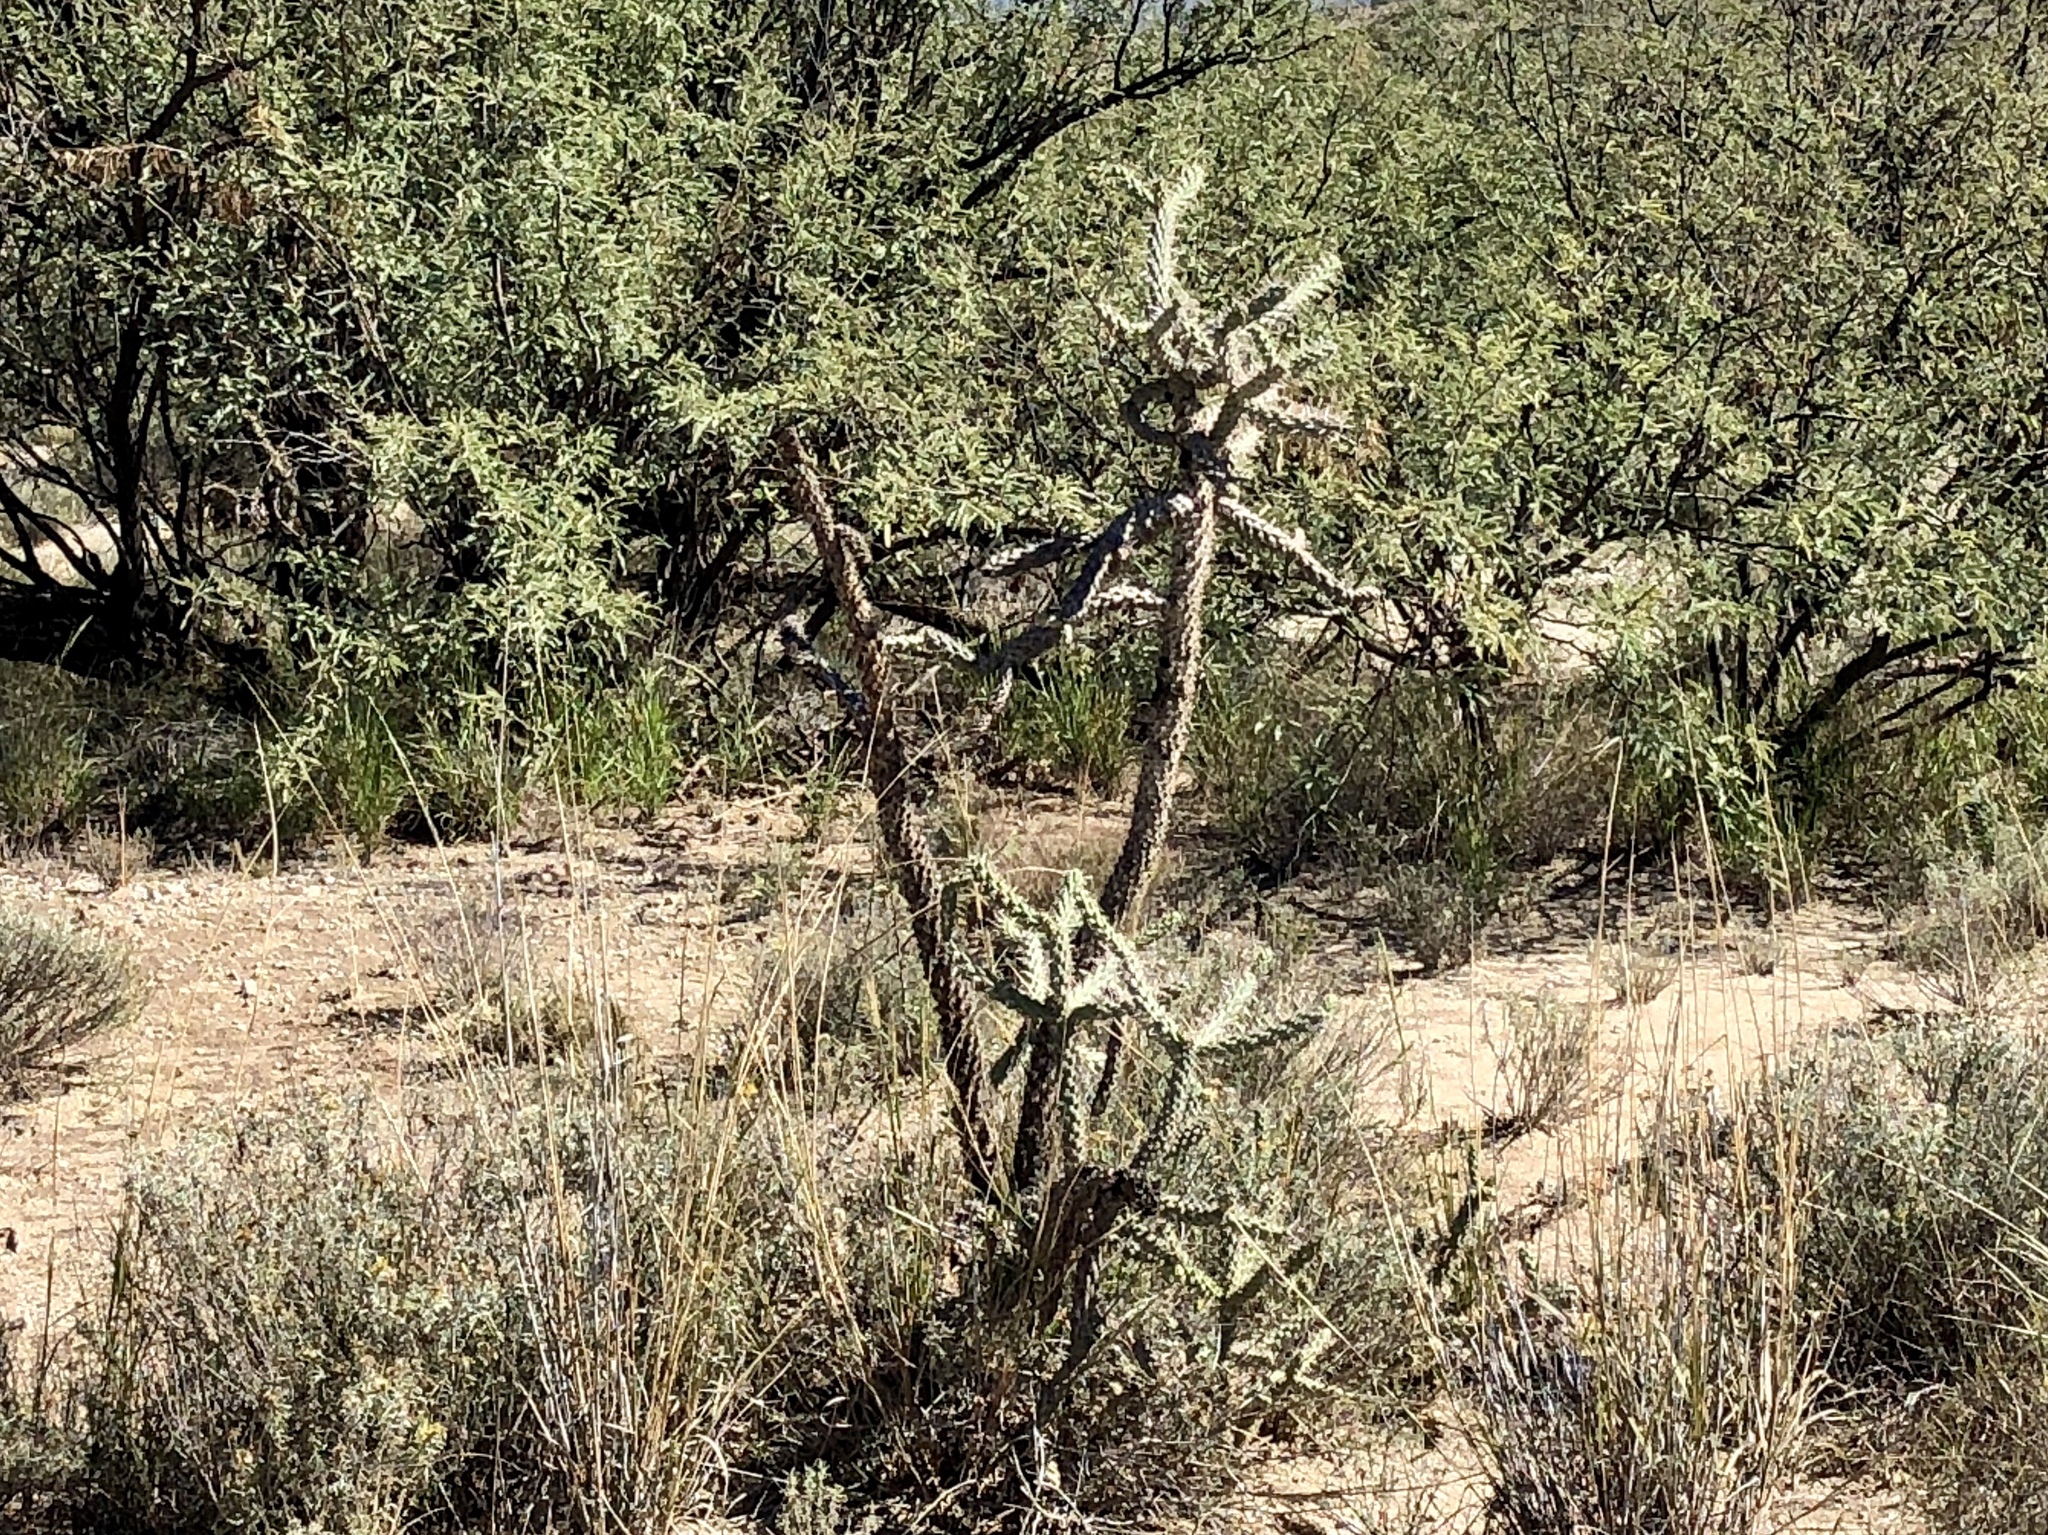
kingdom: Plantae
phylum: Tracheophyta
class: Magnoliopsida
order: Caryophyllales
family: Cactaceae
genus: Cylindropuntia
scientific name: Cylindropuntia imbricata
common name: Candelabrum cactus
